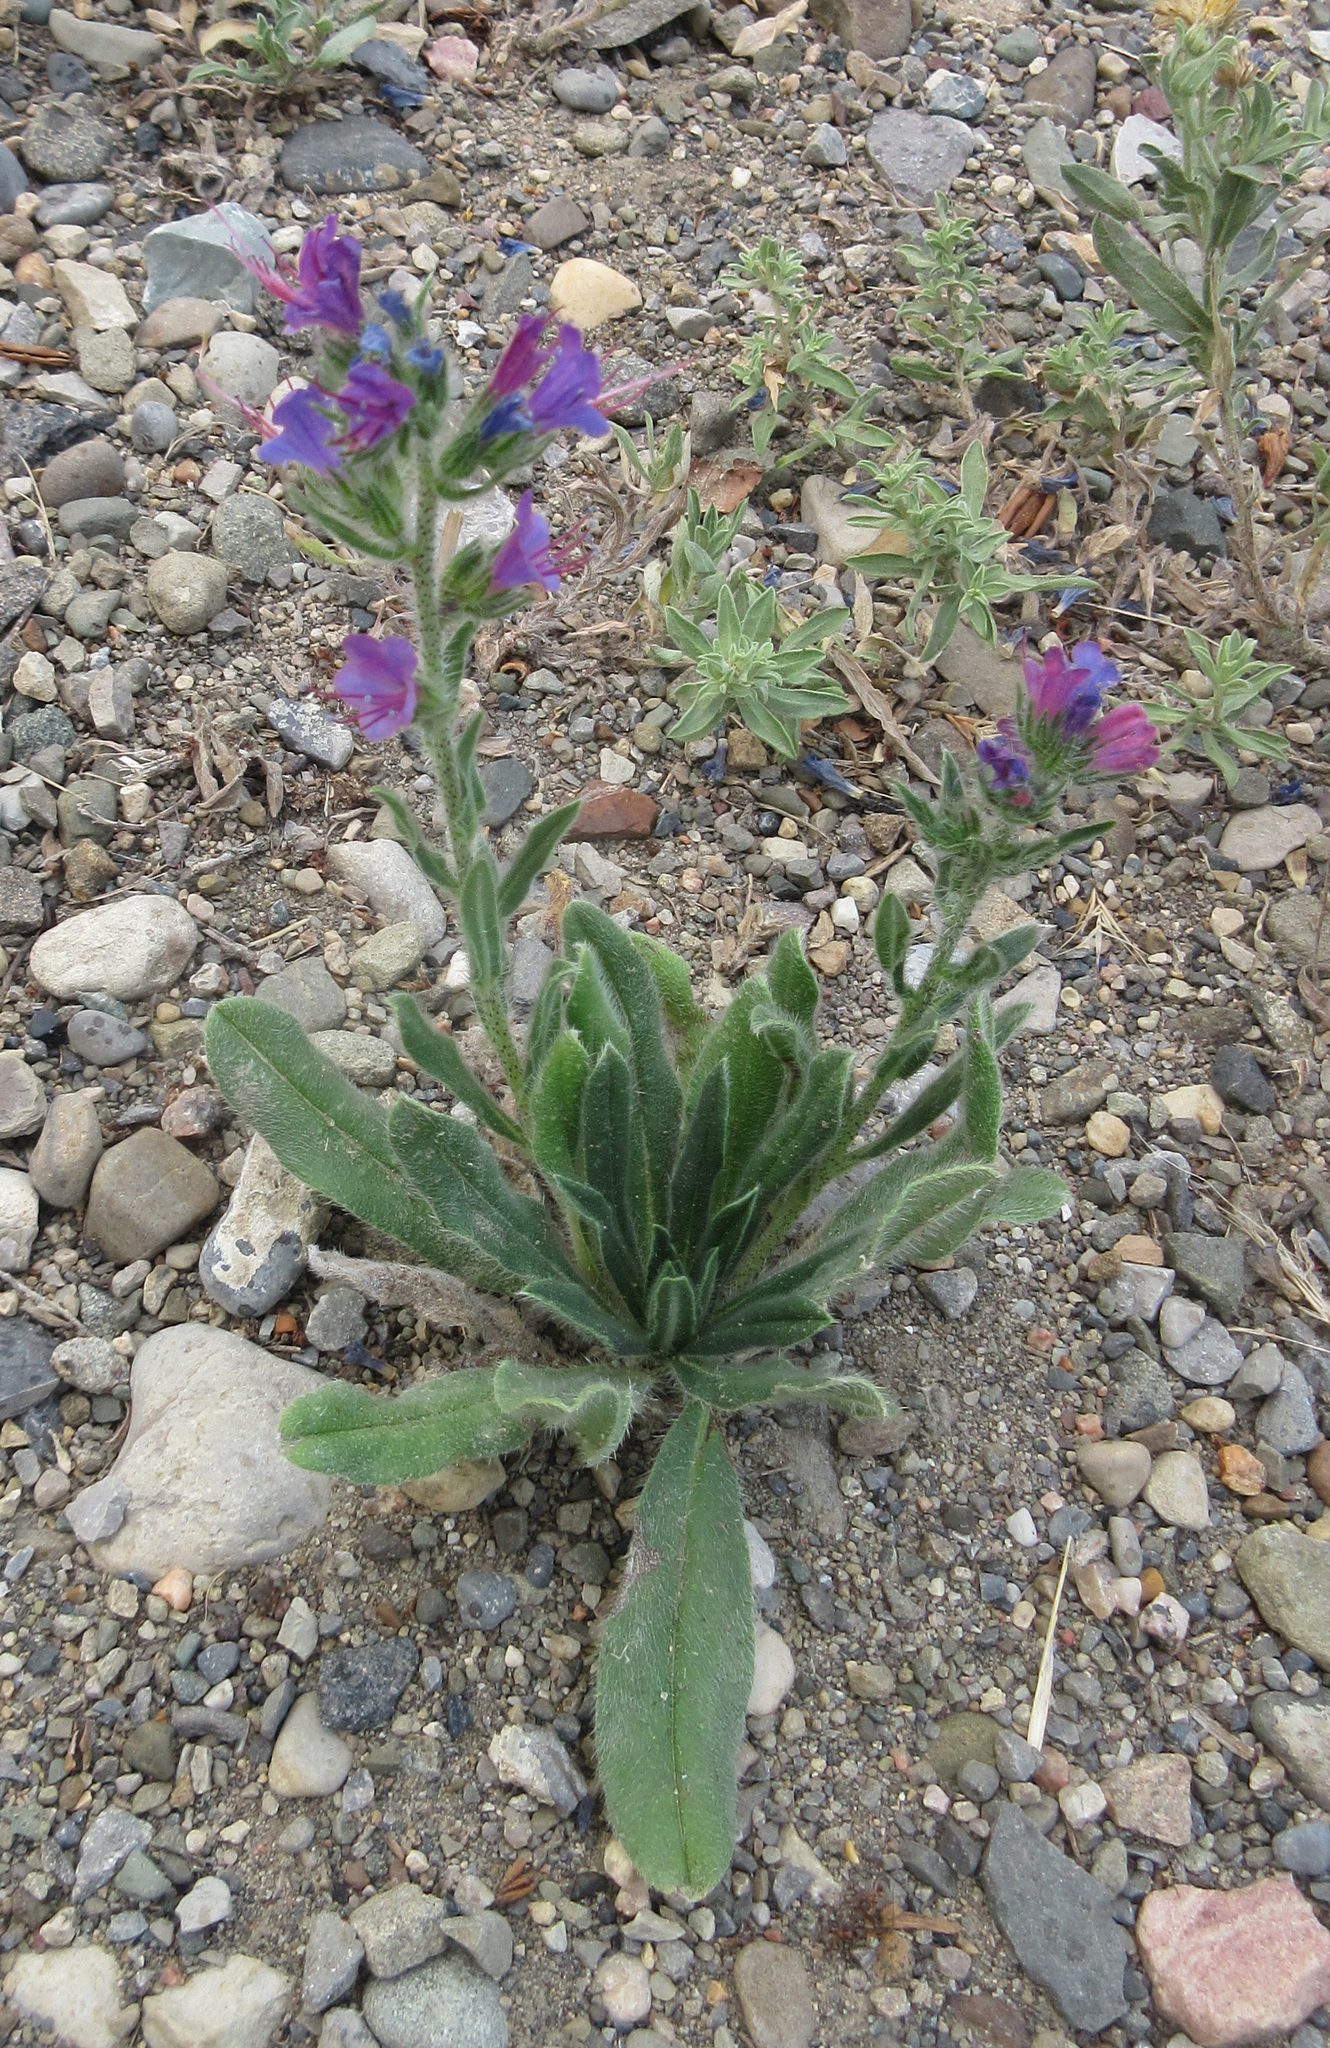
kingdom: Plantae
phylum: Tracheophyta
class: Magnoliopsida
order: Boraginales
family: Boraginaceae
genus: Echium
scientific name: Echium vulgare
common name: Common viper's bugloss
